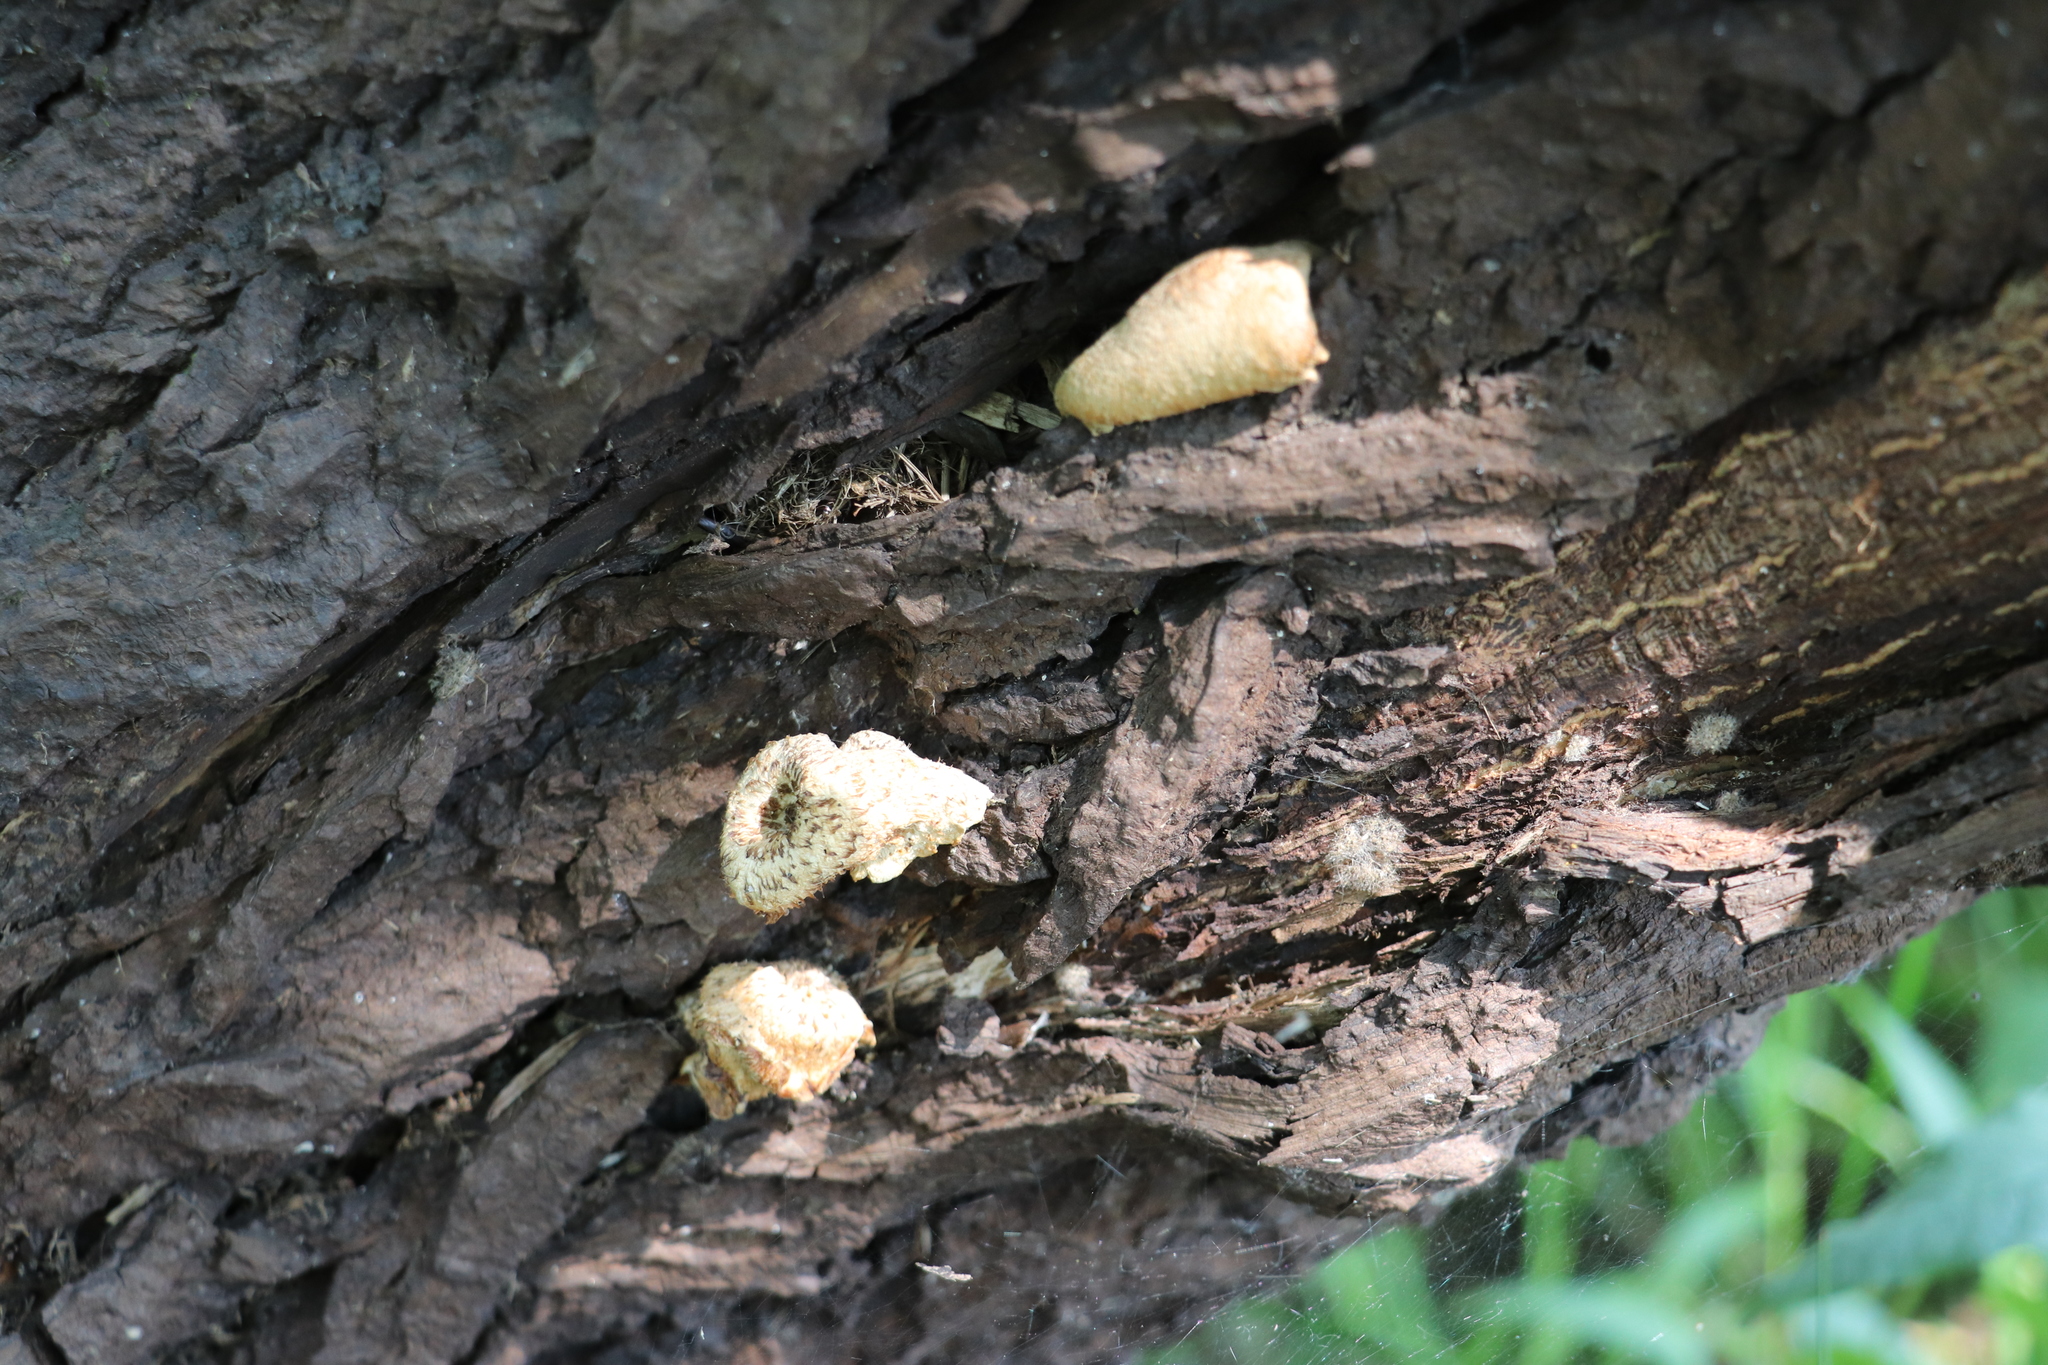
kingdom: Fungi
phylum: Basidiomycota
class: Agaricomycetes
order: Polyporales
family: Polyporaceae
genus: Lentinus
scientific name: Lentinus tigrinus
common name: Tiger sawgill
